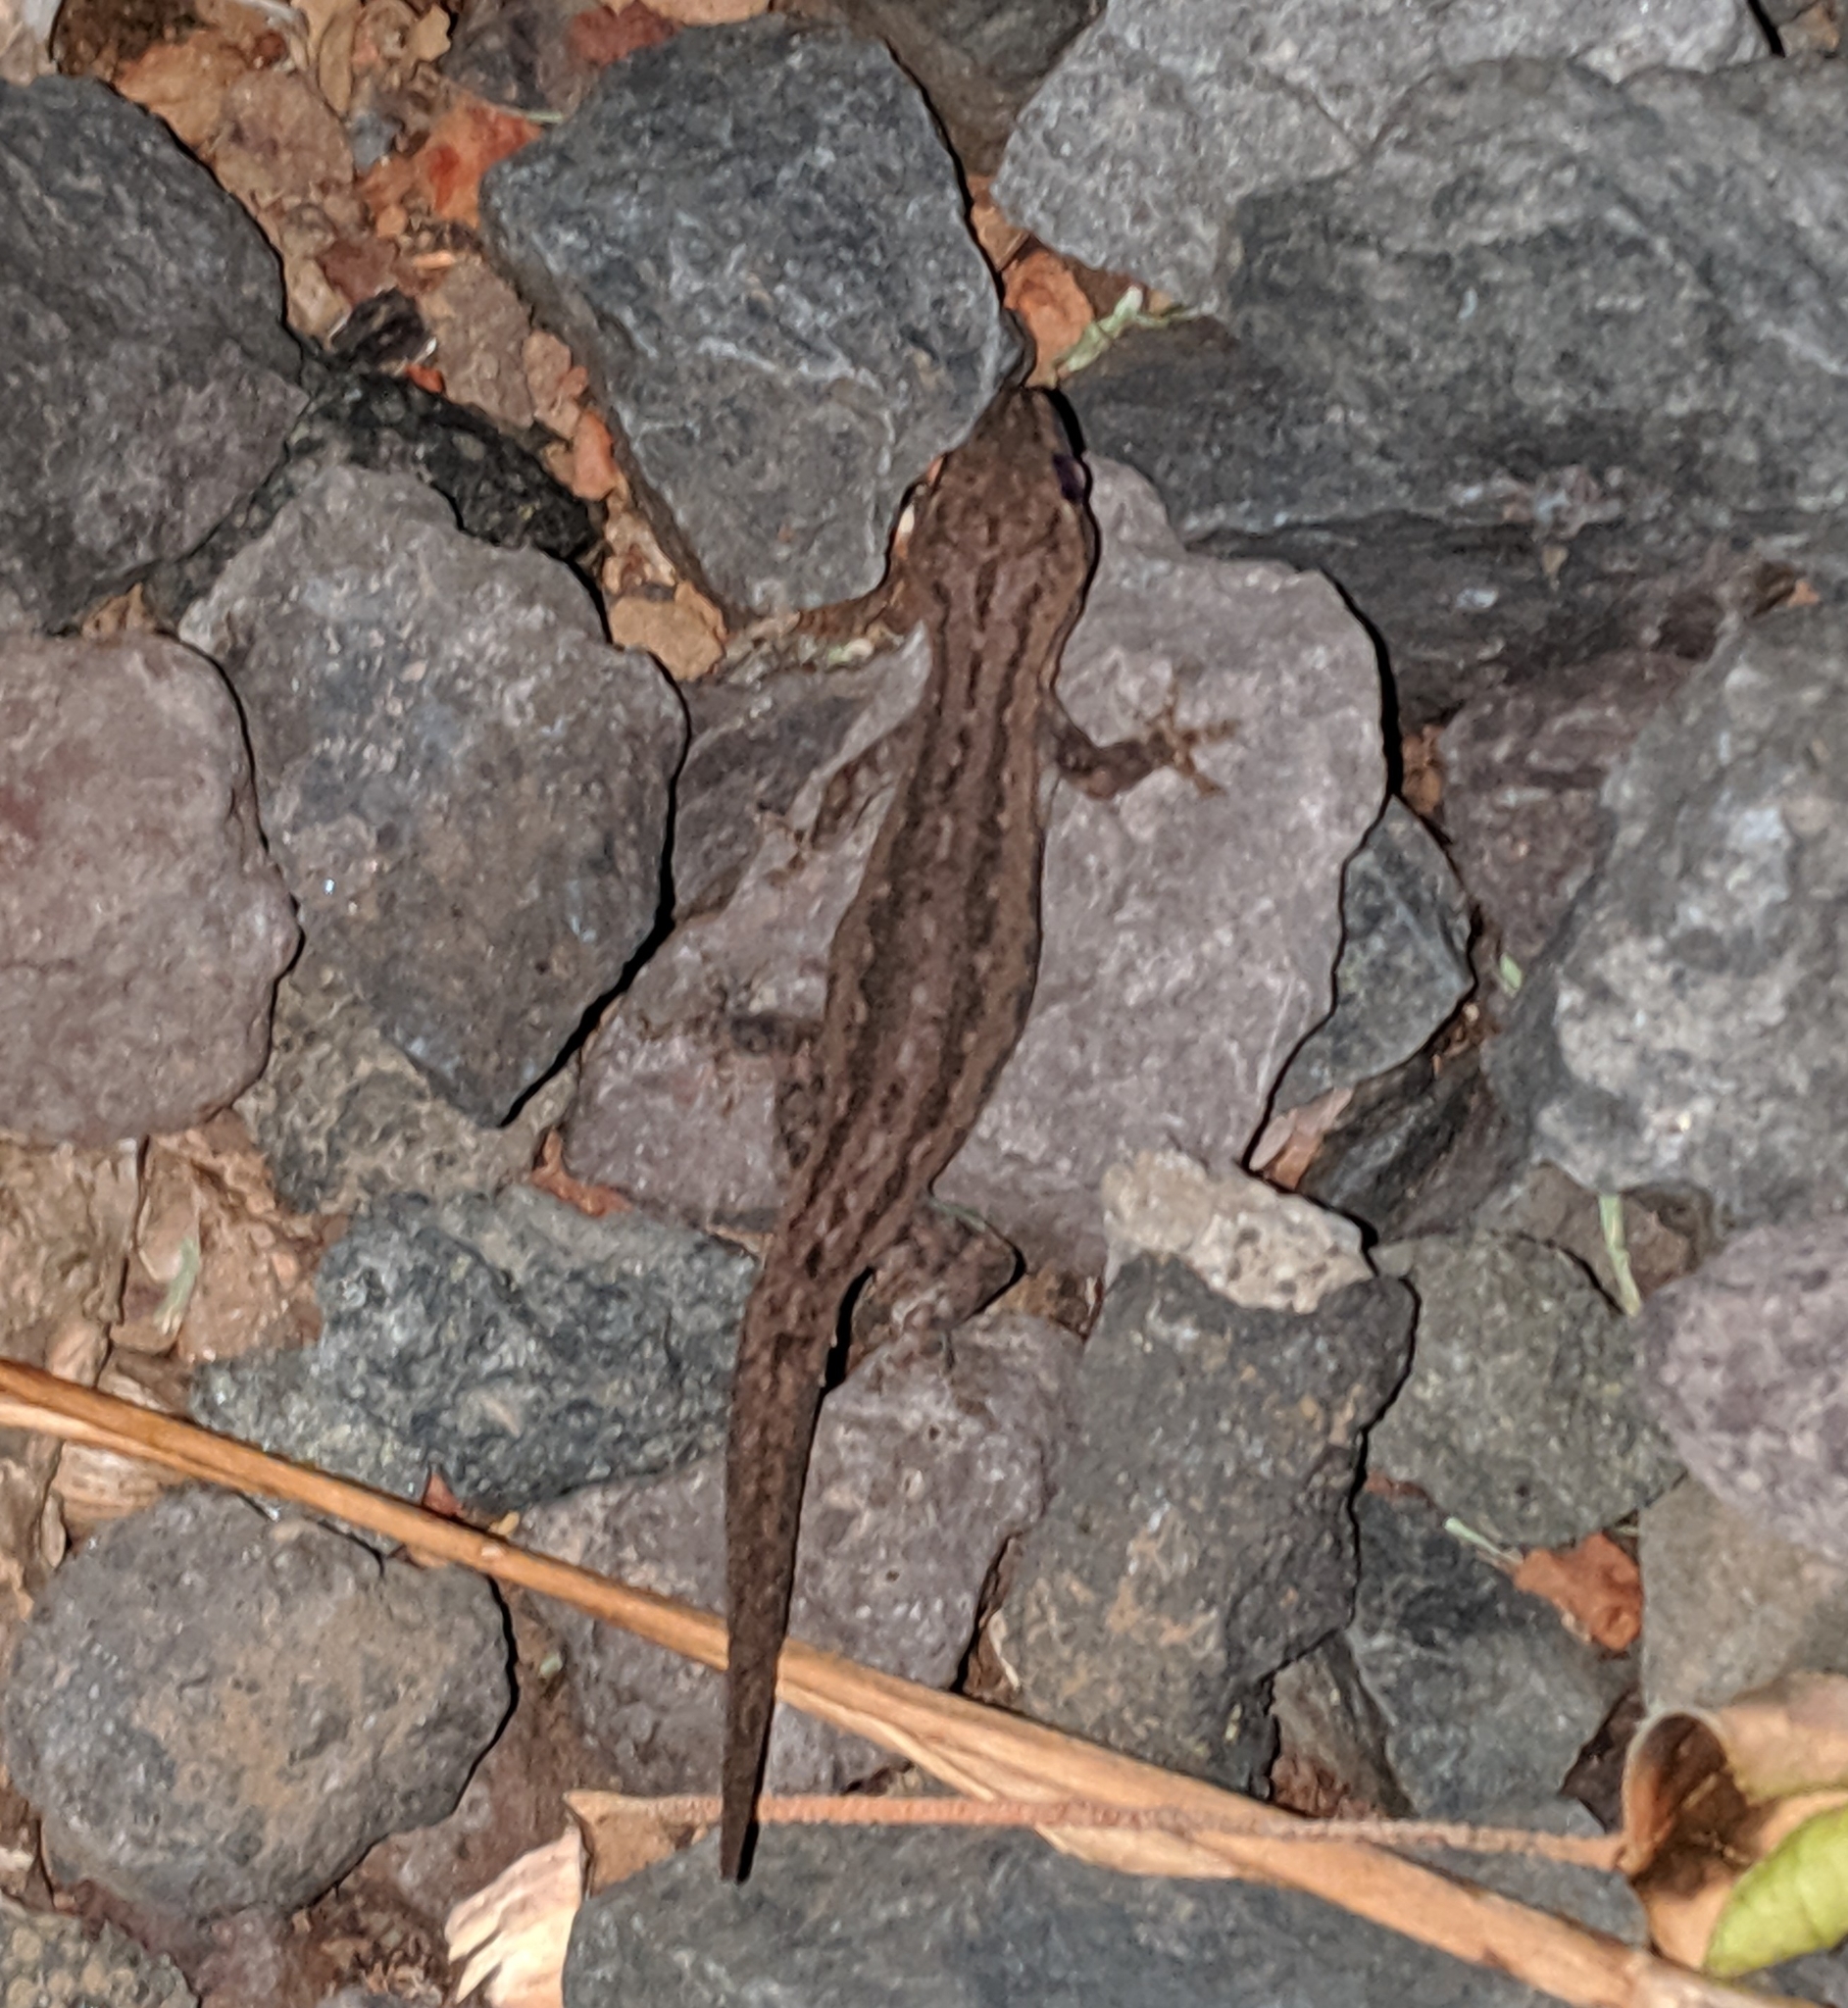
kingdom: Animalia
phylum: Chordata
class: Squamata
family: Gekkonidae
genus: Hemidactylus
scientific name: Hemidactylus frenatus
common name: Common house gecko
